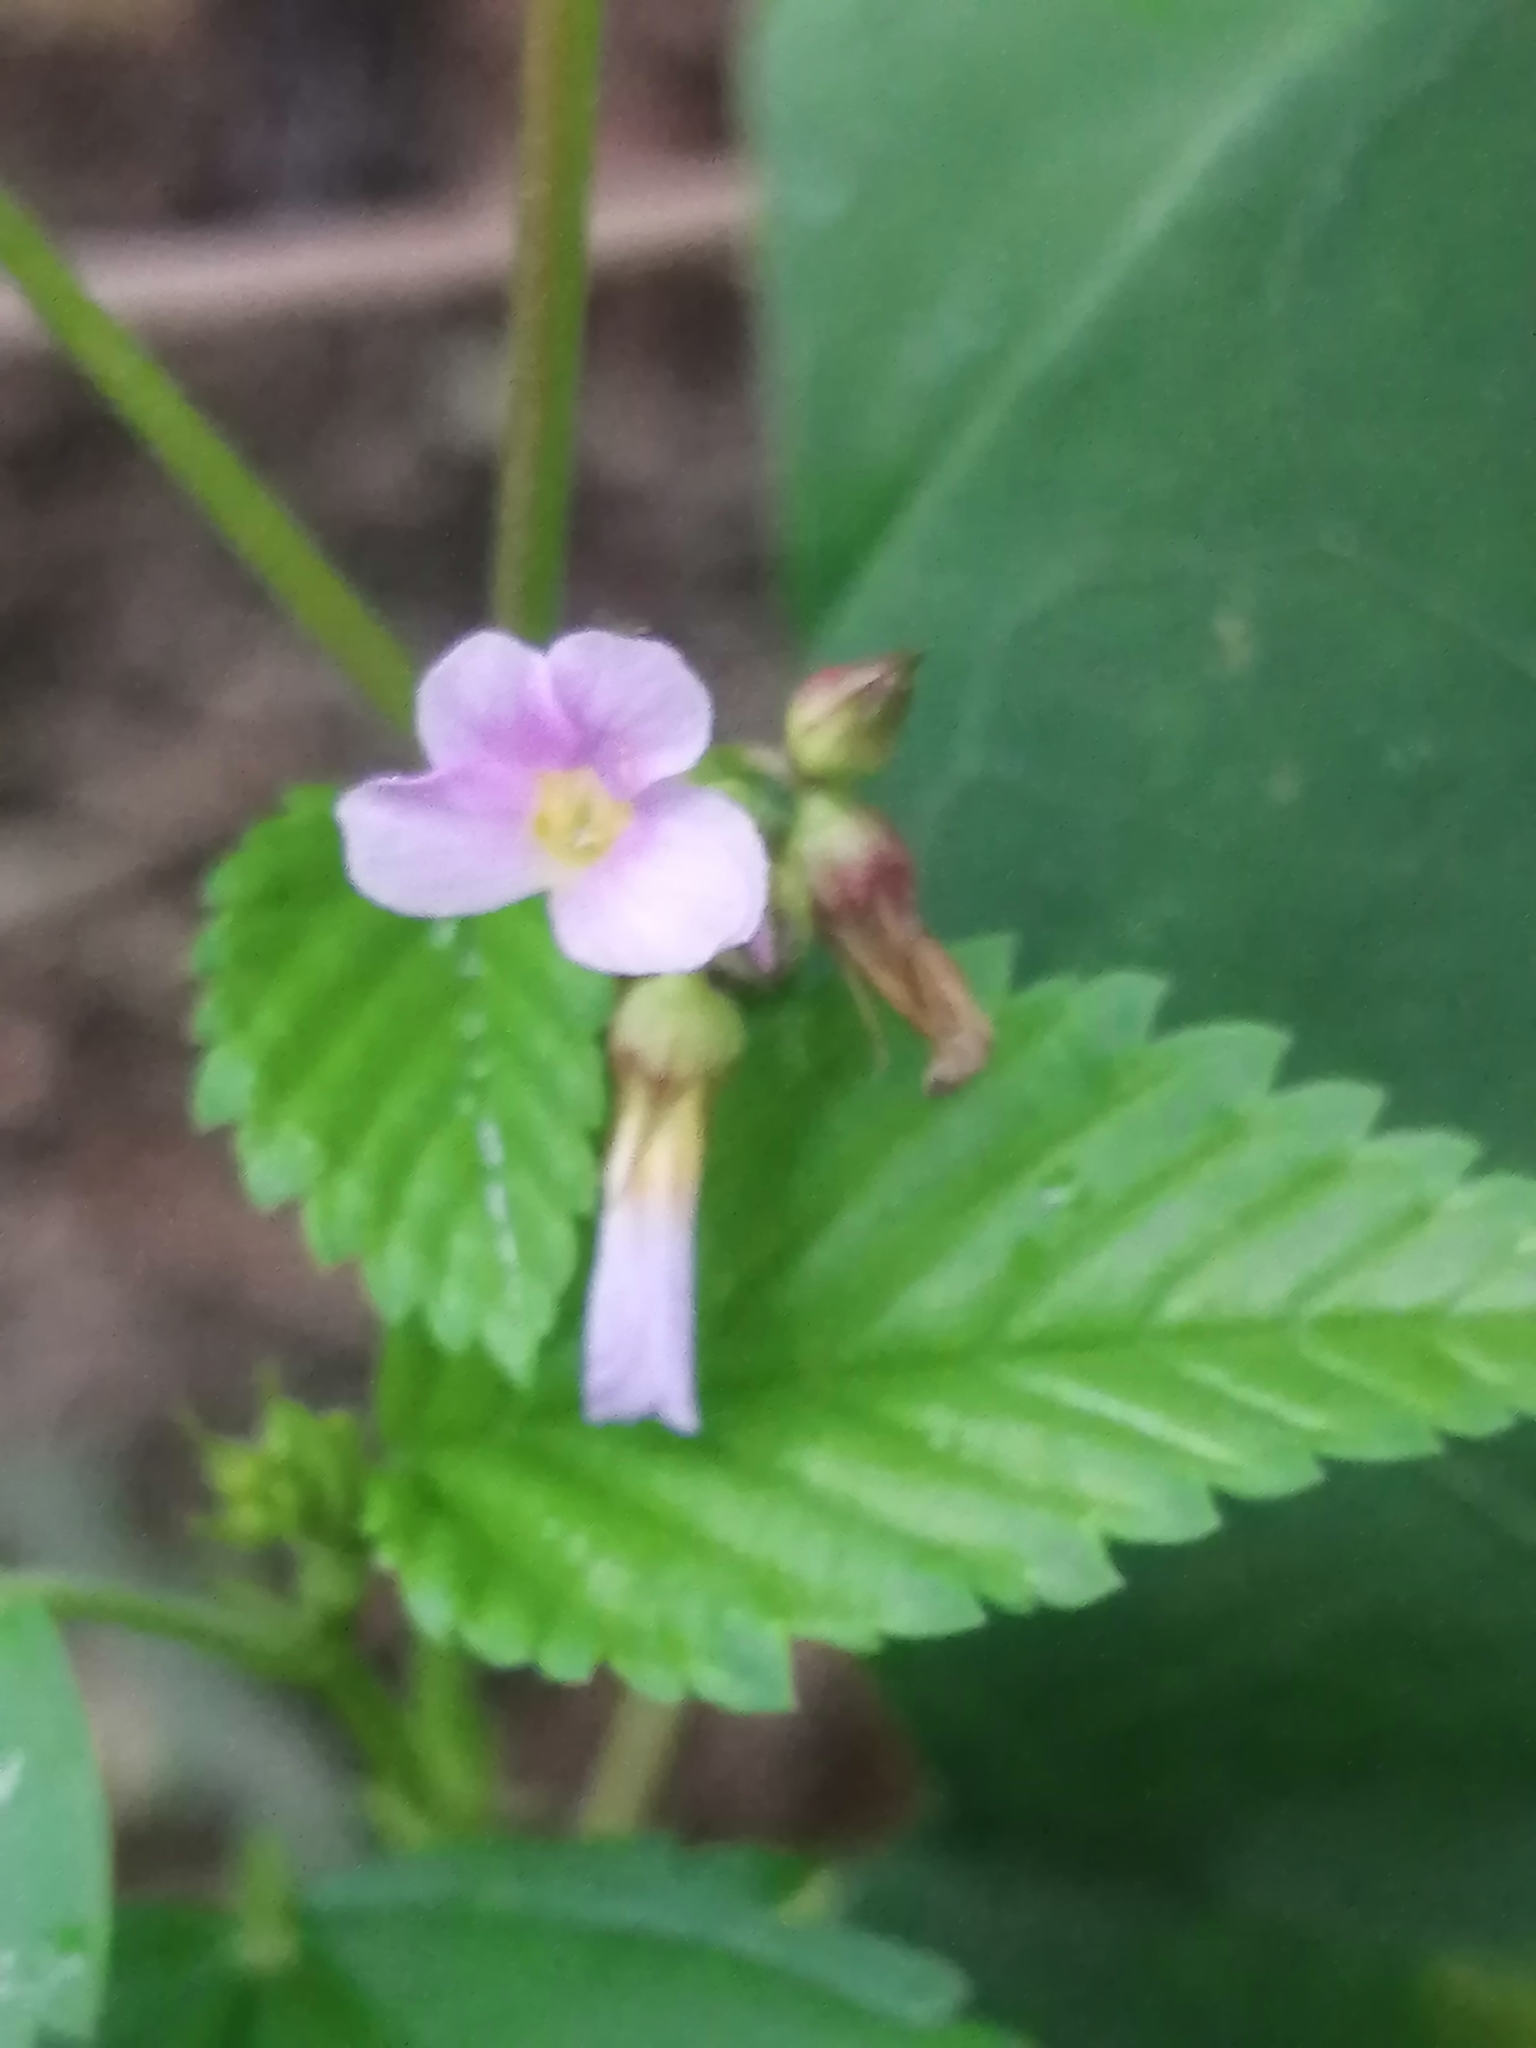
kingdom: Plantae
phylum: Tracheophyta
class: Magnoliopsida
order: Malvales
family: Malvaceae
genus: Melochia
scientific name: Melochia pyramidata
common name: Pyramidflower
